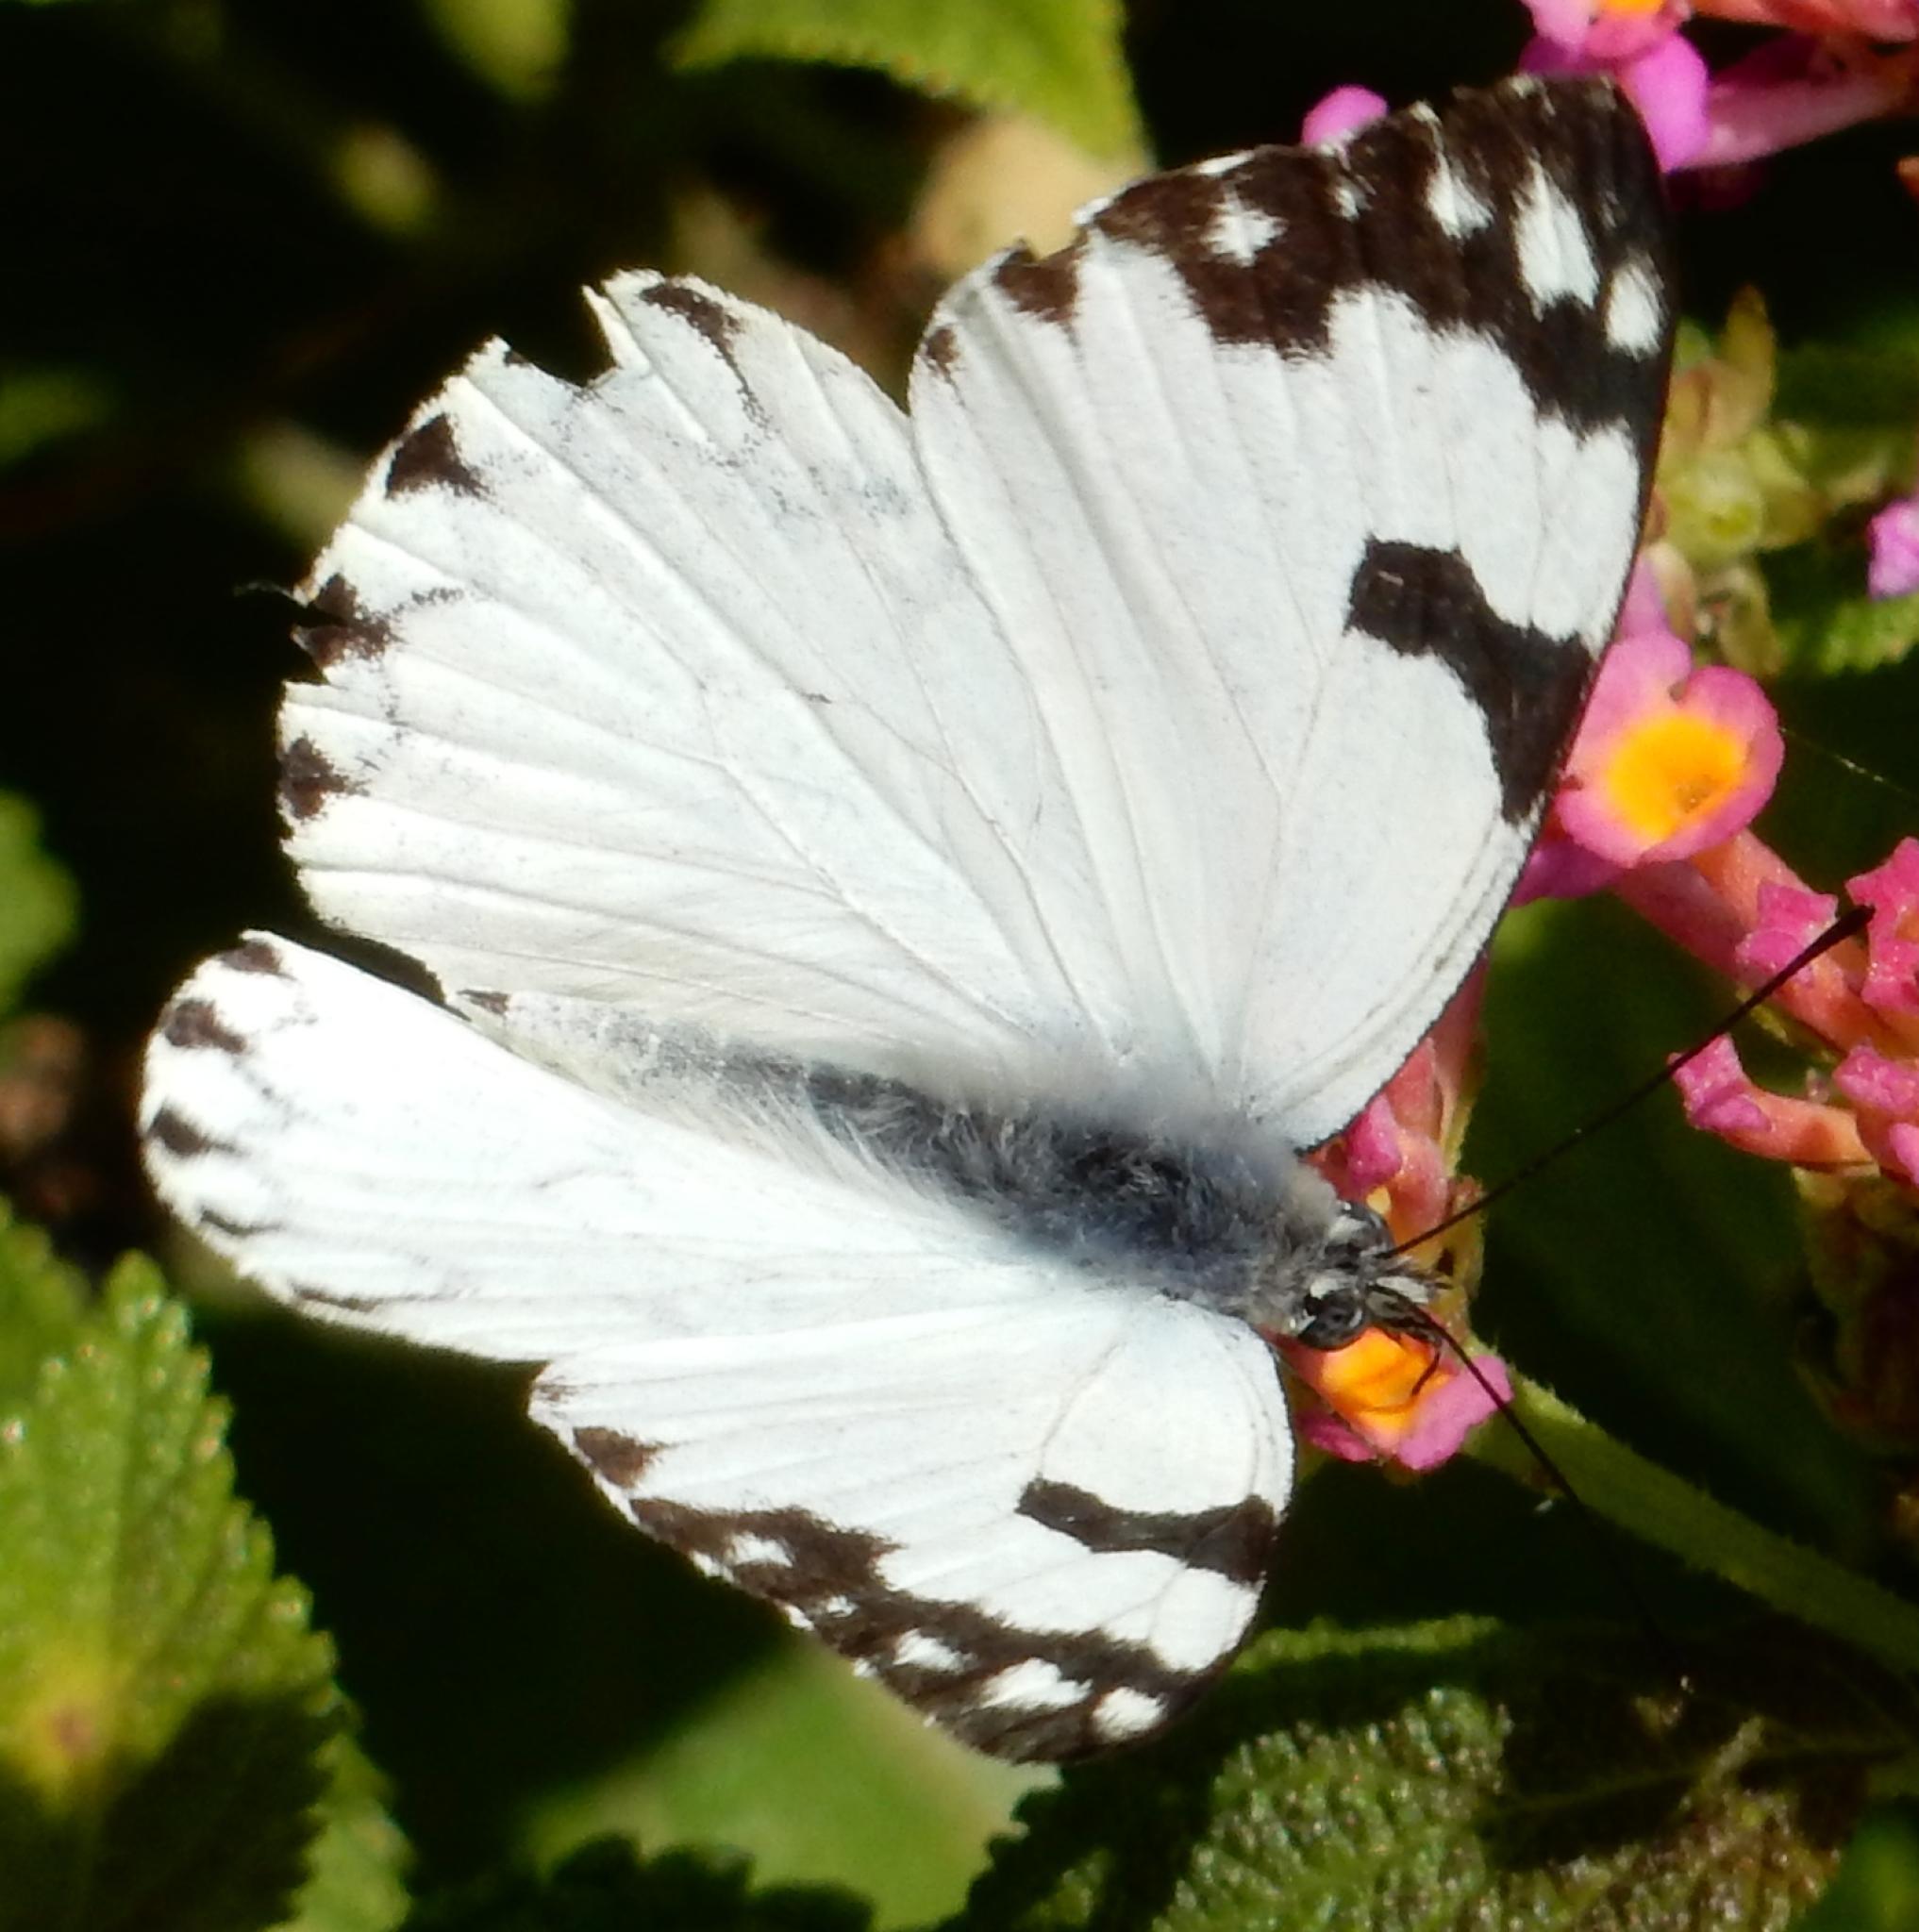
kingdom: Animalia
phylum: Arthropoda
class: Insecta
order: Lepidoptera
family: Pieridae
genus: Belenois
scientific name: Belenois zochalia
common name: Forest caper white
